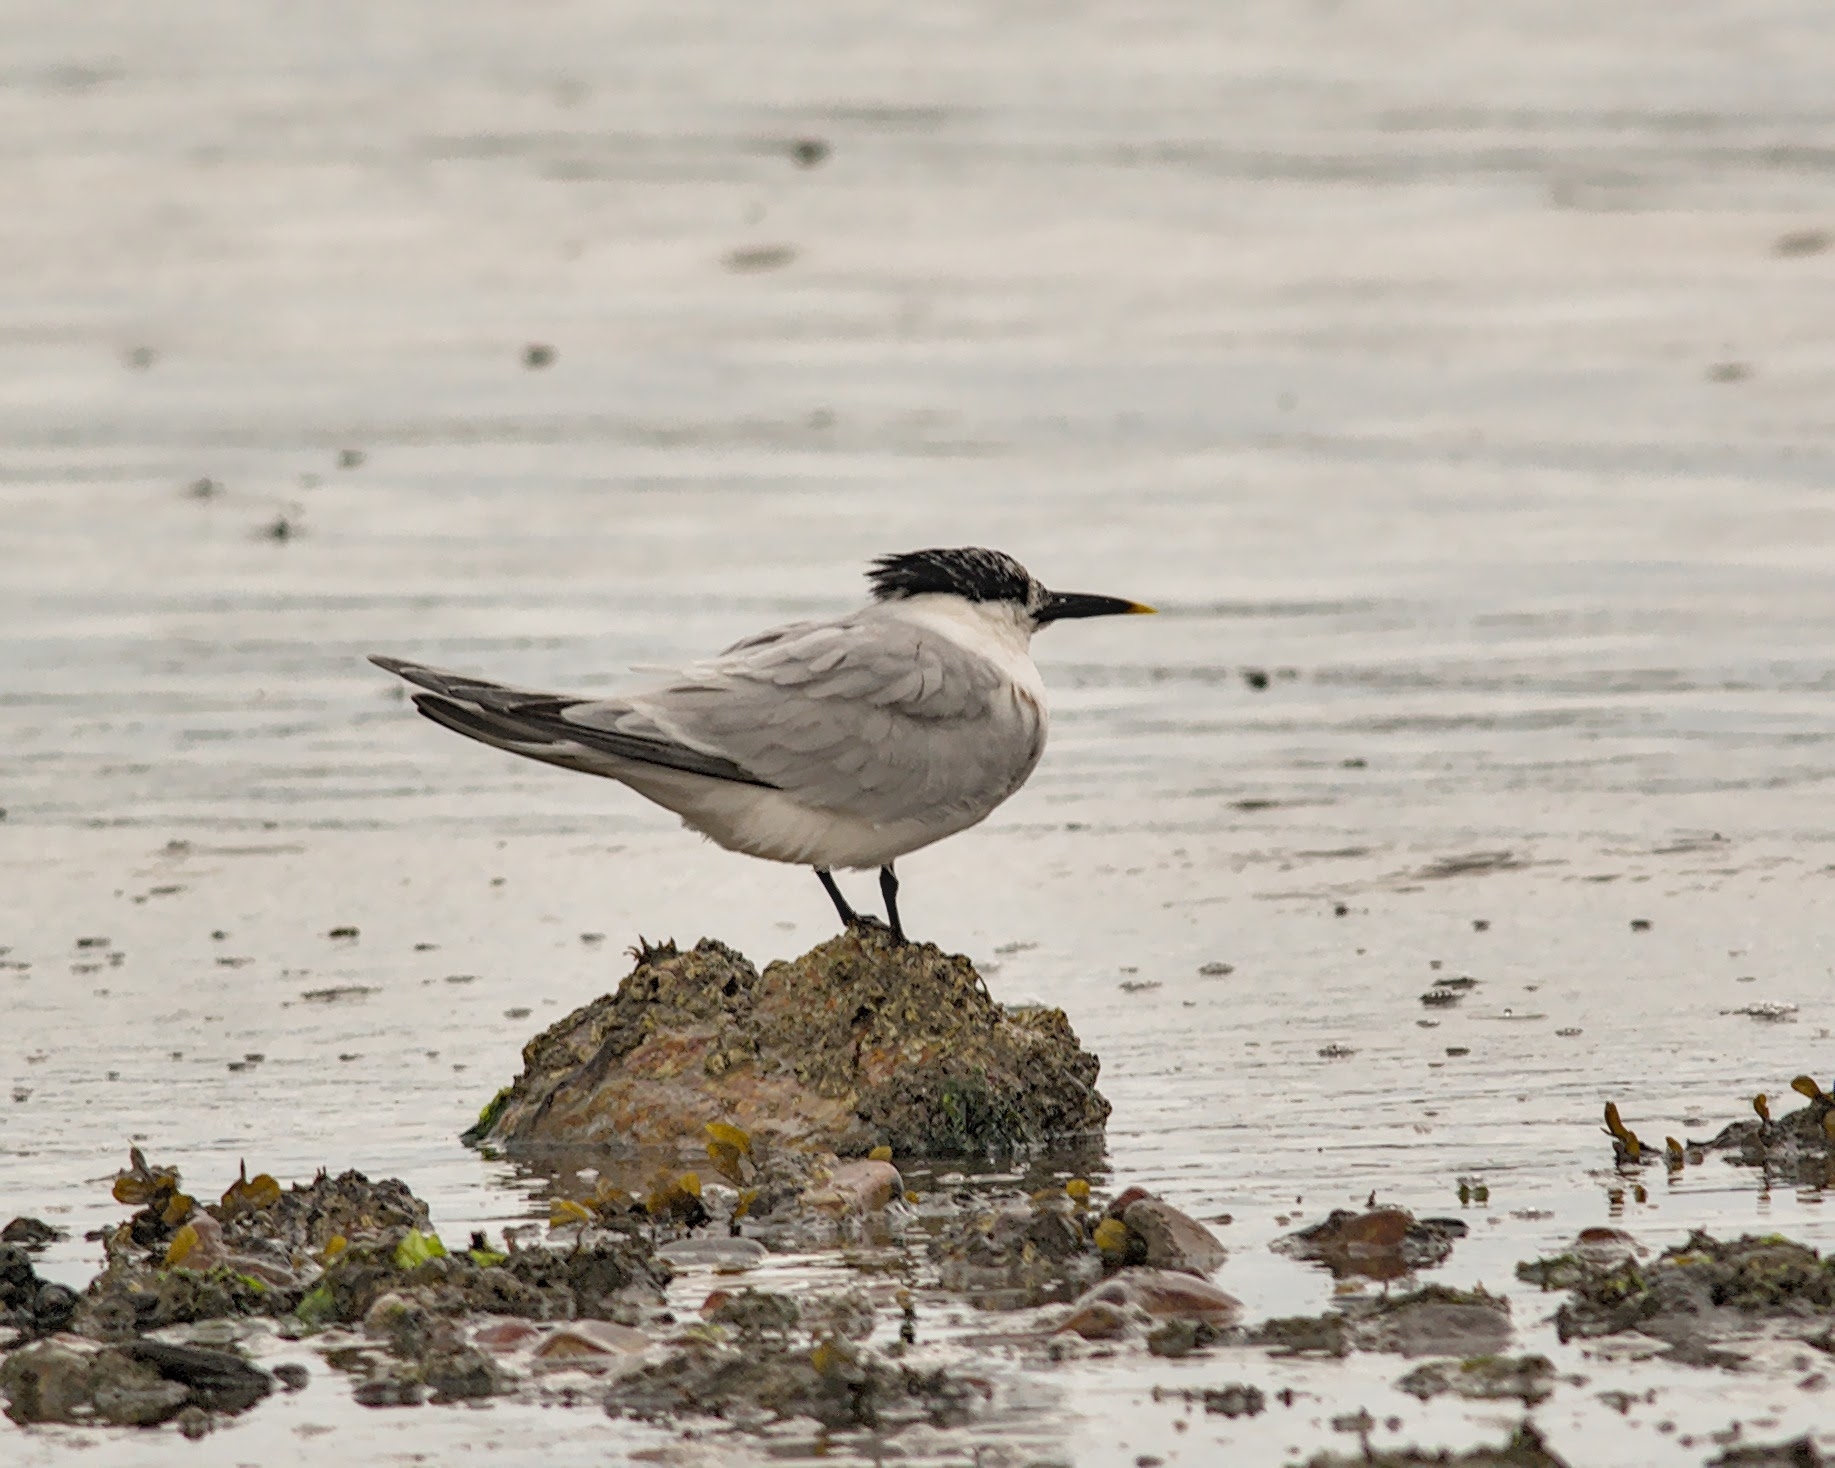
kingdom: Animalia
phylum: Chordata
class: Aves
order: Charadriiformes
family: Laridae
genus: Thalasseus
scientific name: Thalasseus sandvicensis
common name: Sandwich tern
